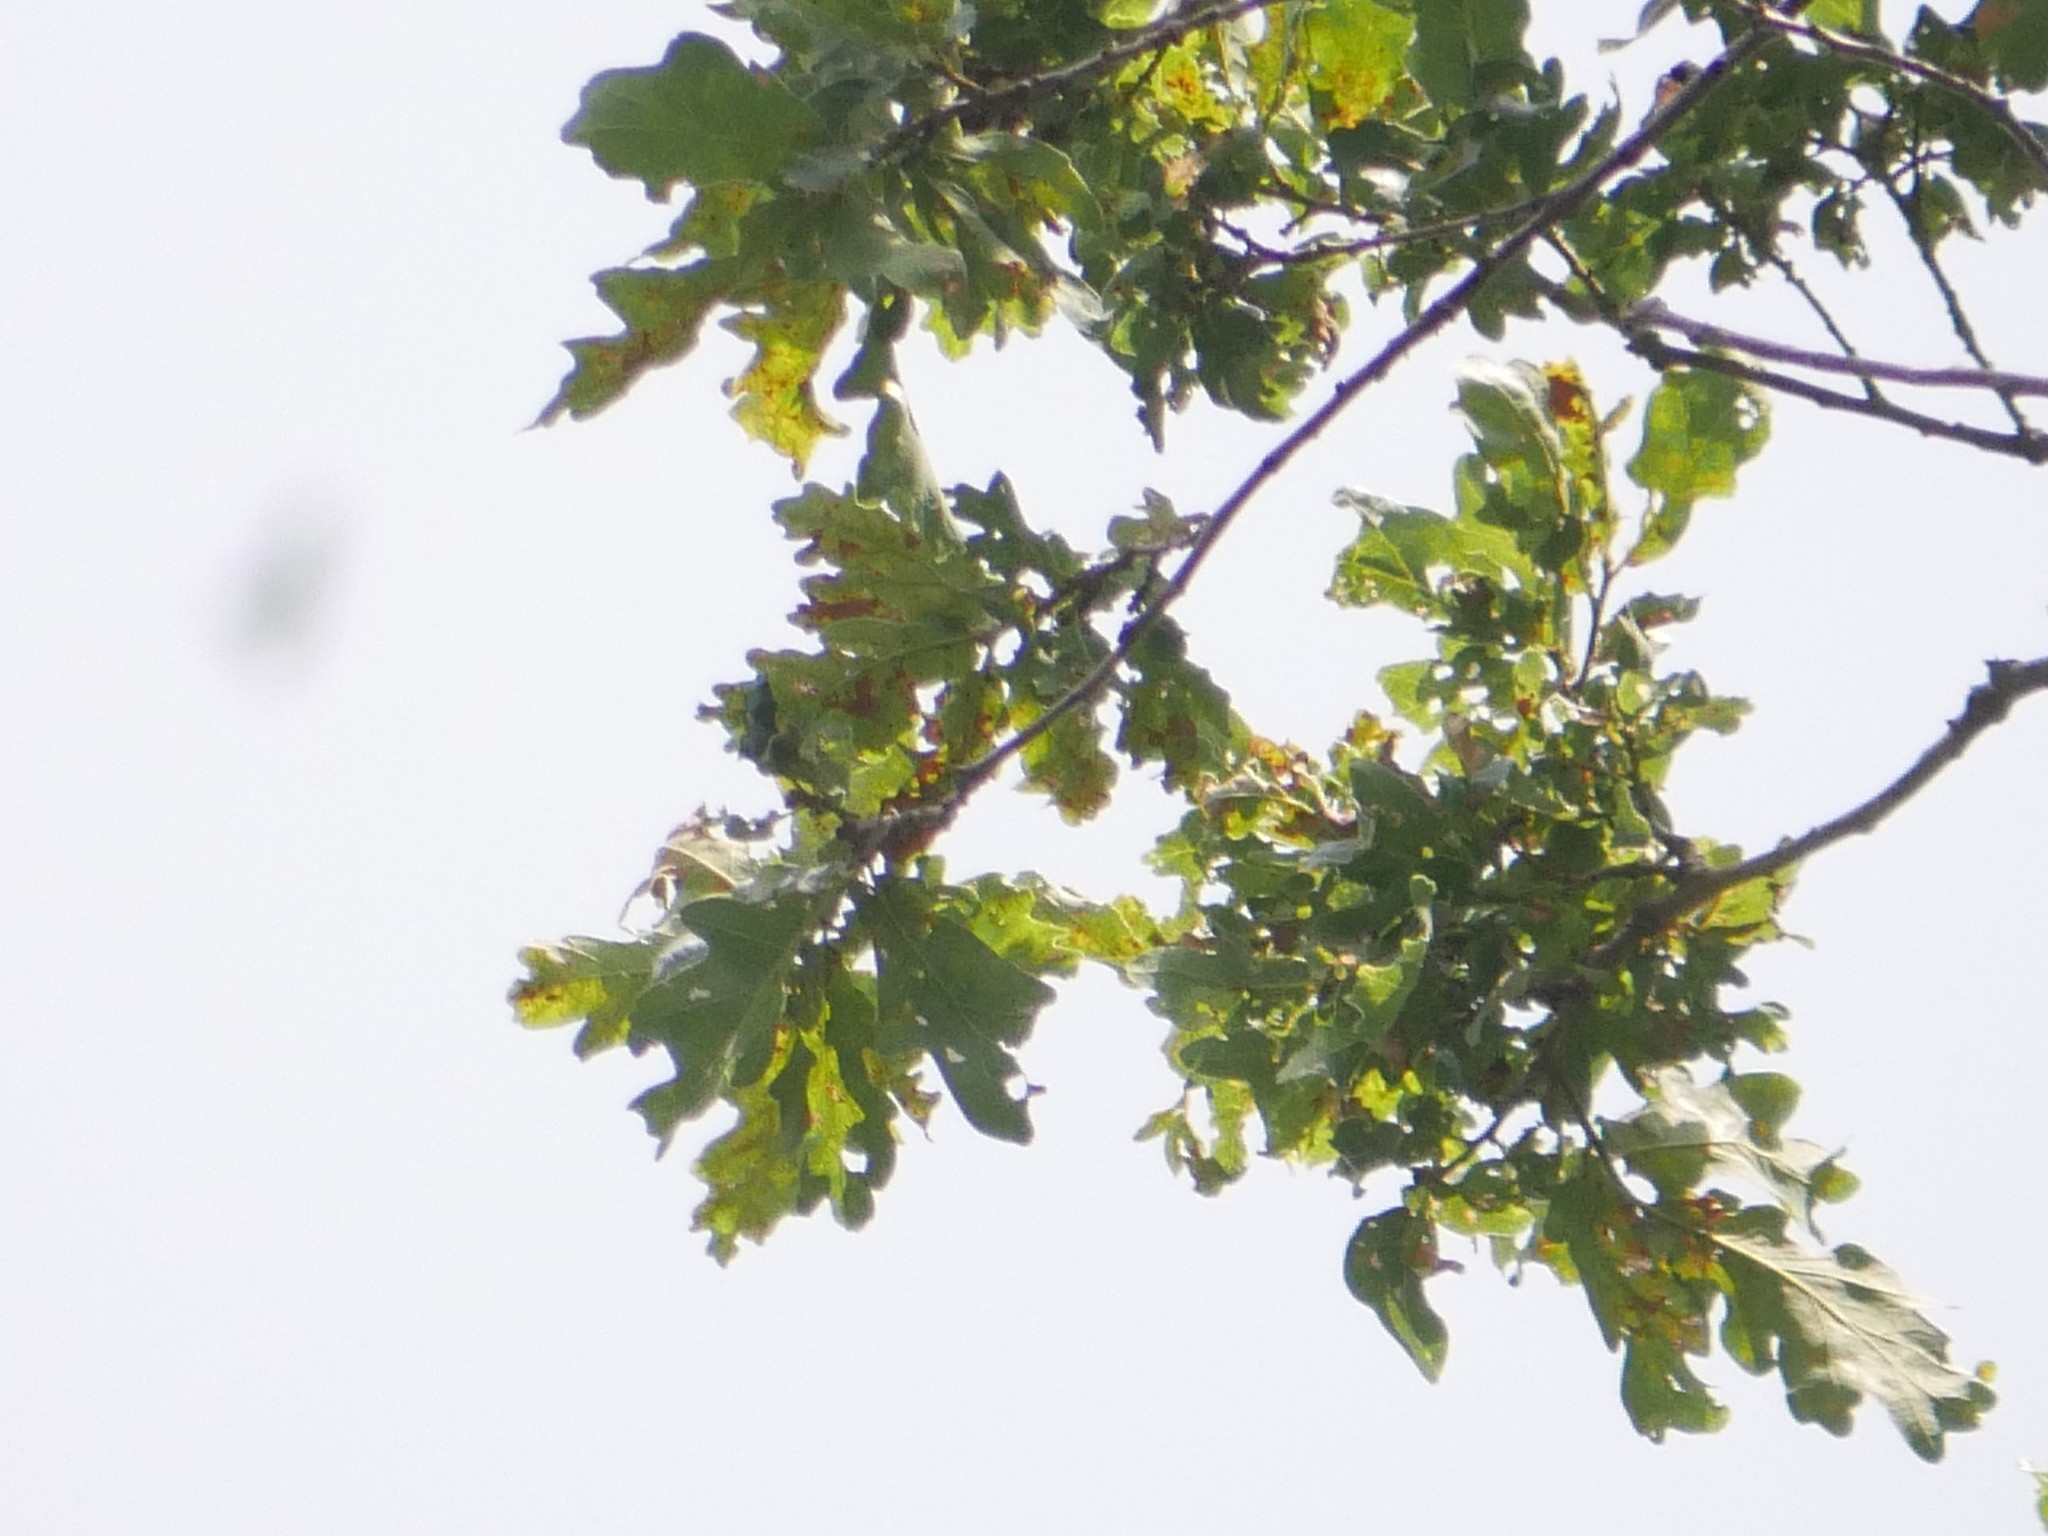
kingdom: Plantae
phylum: Tracheophyta
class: Magnoliopsida
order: Fagales
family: Fagaceae
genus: Quercus
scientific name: Quercus robur
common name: Pedunculate oak
